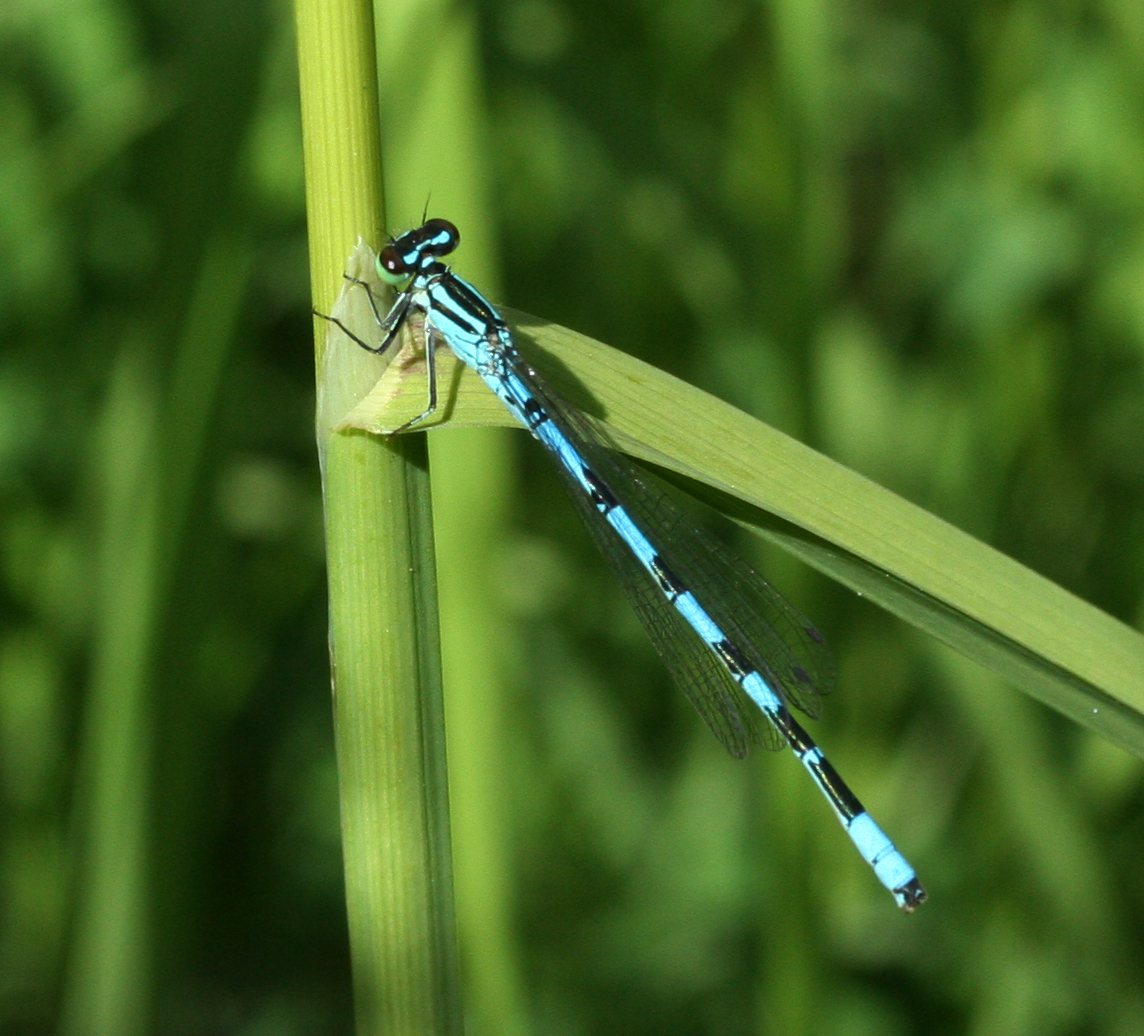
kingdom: Animalia
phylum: Arthropoda
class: Insecta
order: Odonata
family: Coenagrionidae
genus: Coenagrion
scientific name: Coenagrion hastulatum
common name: Spearhead bluet
